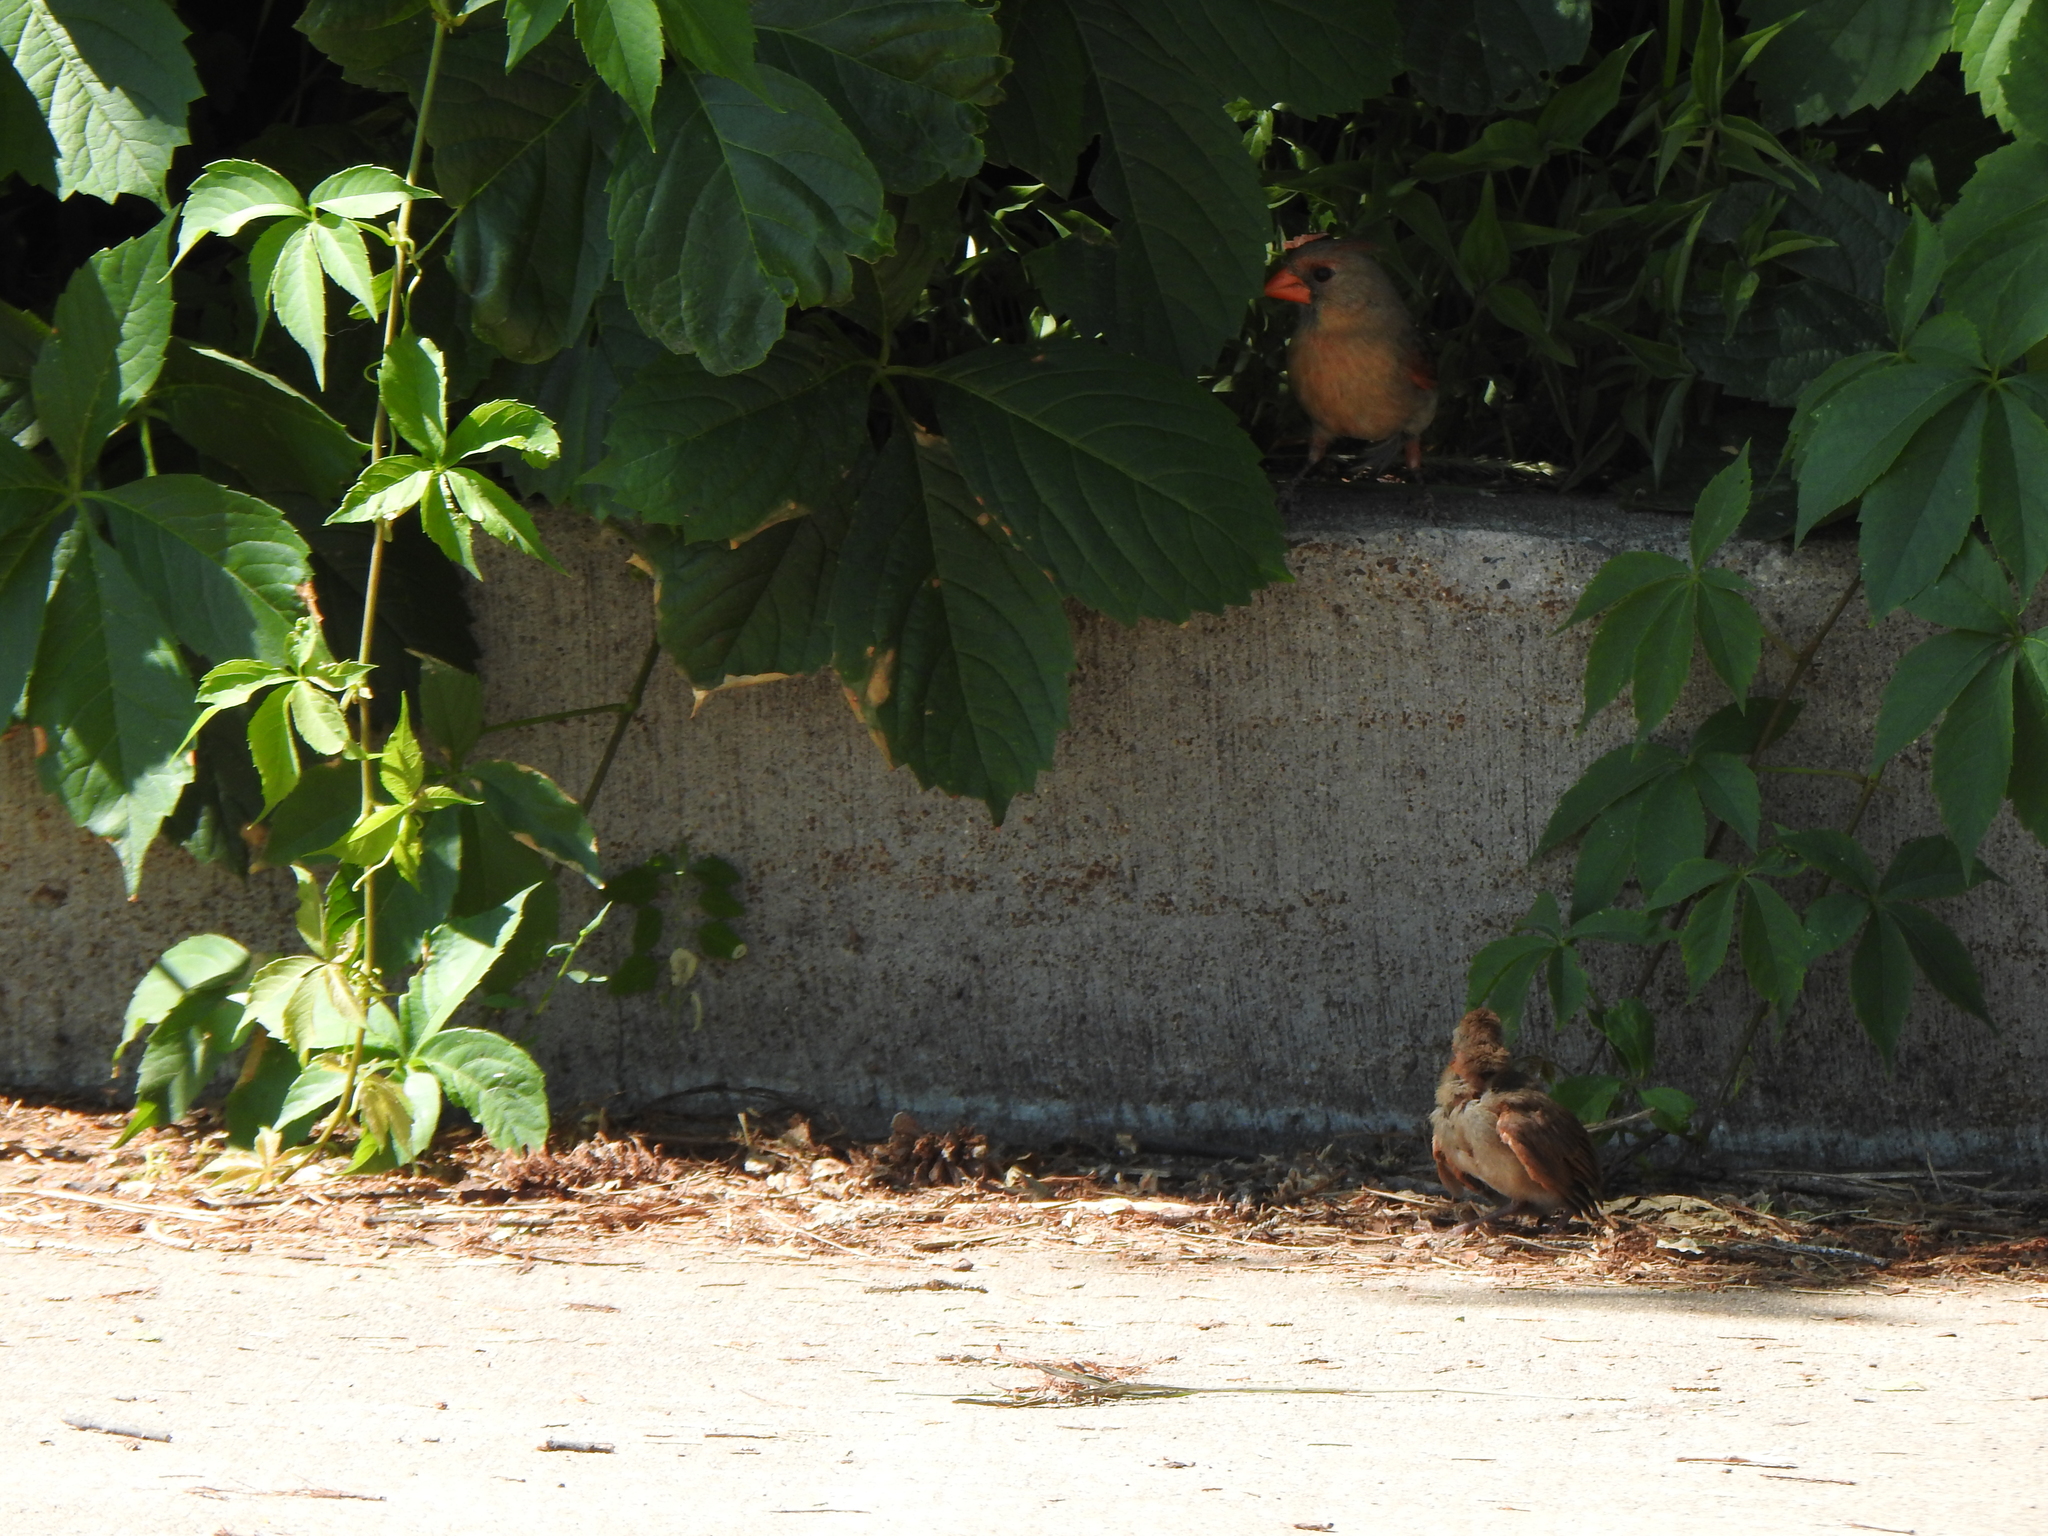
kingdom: Animalia
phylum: Chordata
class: Aves
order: Passeriformes
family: Cardinalidae
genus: Cardinalis
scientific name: Cardinalis cardinalis
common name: Northern cardinal
